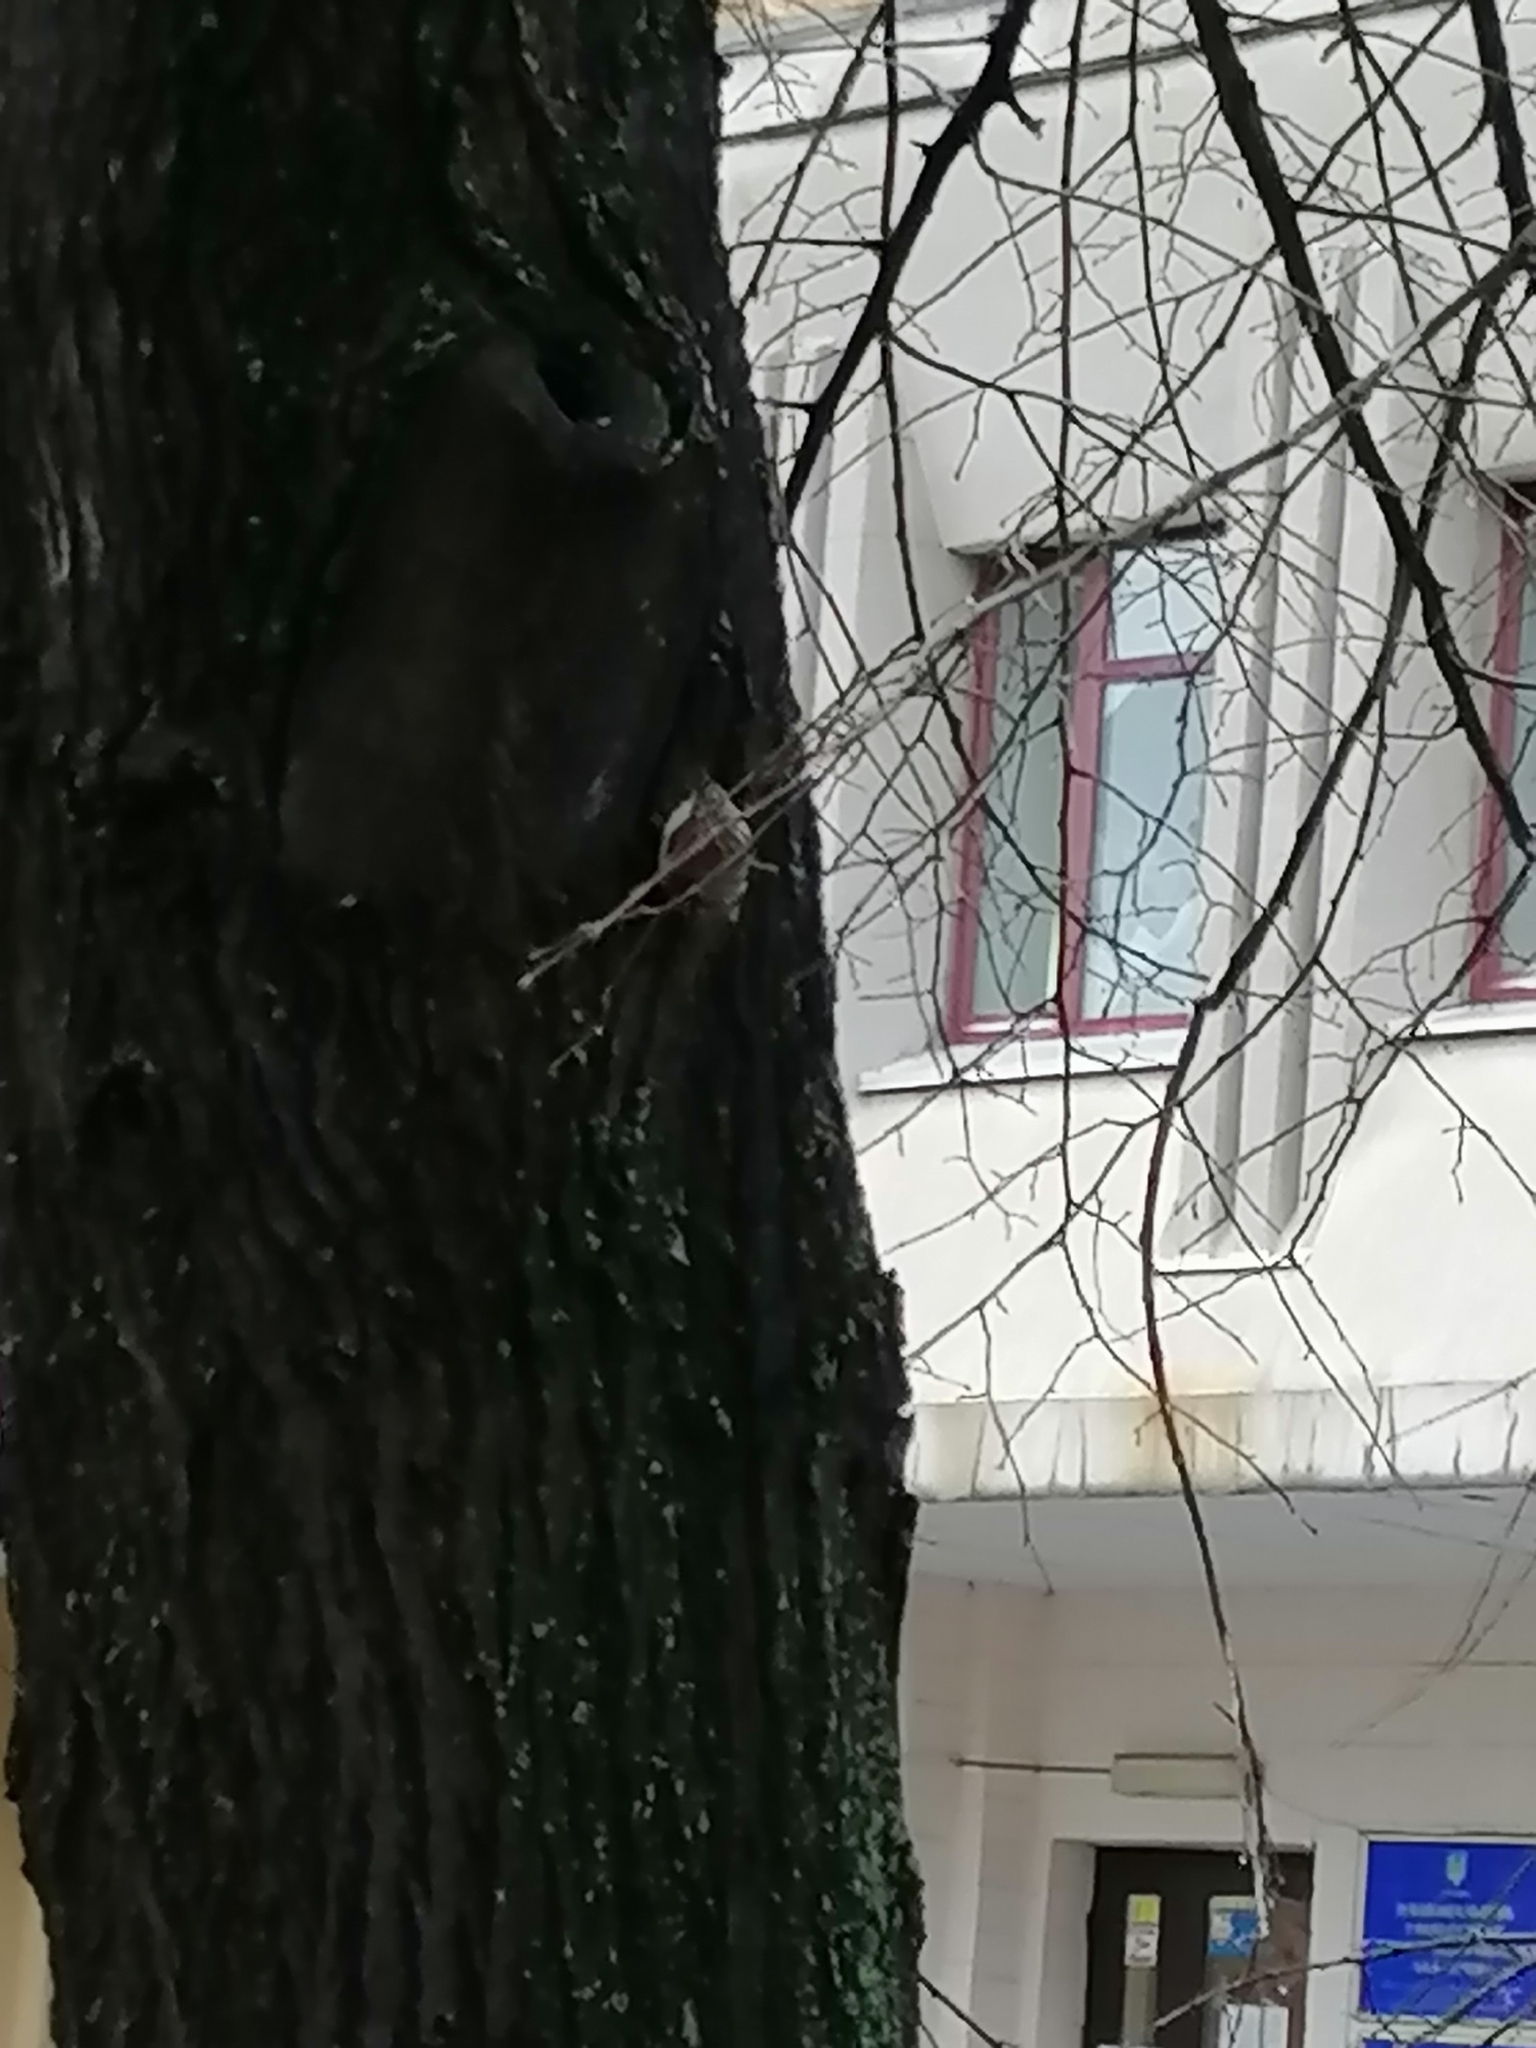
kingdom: Animalia
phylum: Chordata
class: Aves
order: Passeriformes
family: Certhiidae
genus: Certhia
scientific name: Certhia familiaris
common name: Eurasian treecreeper
